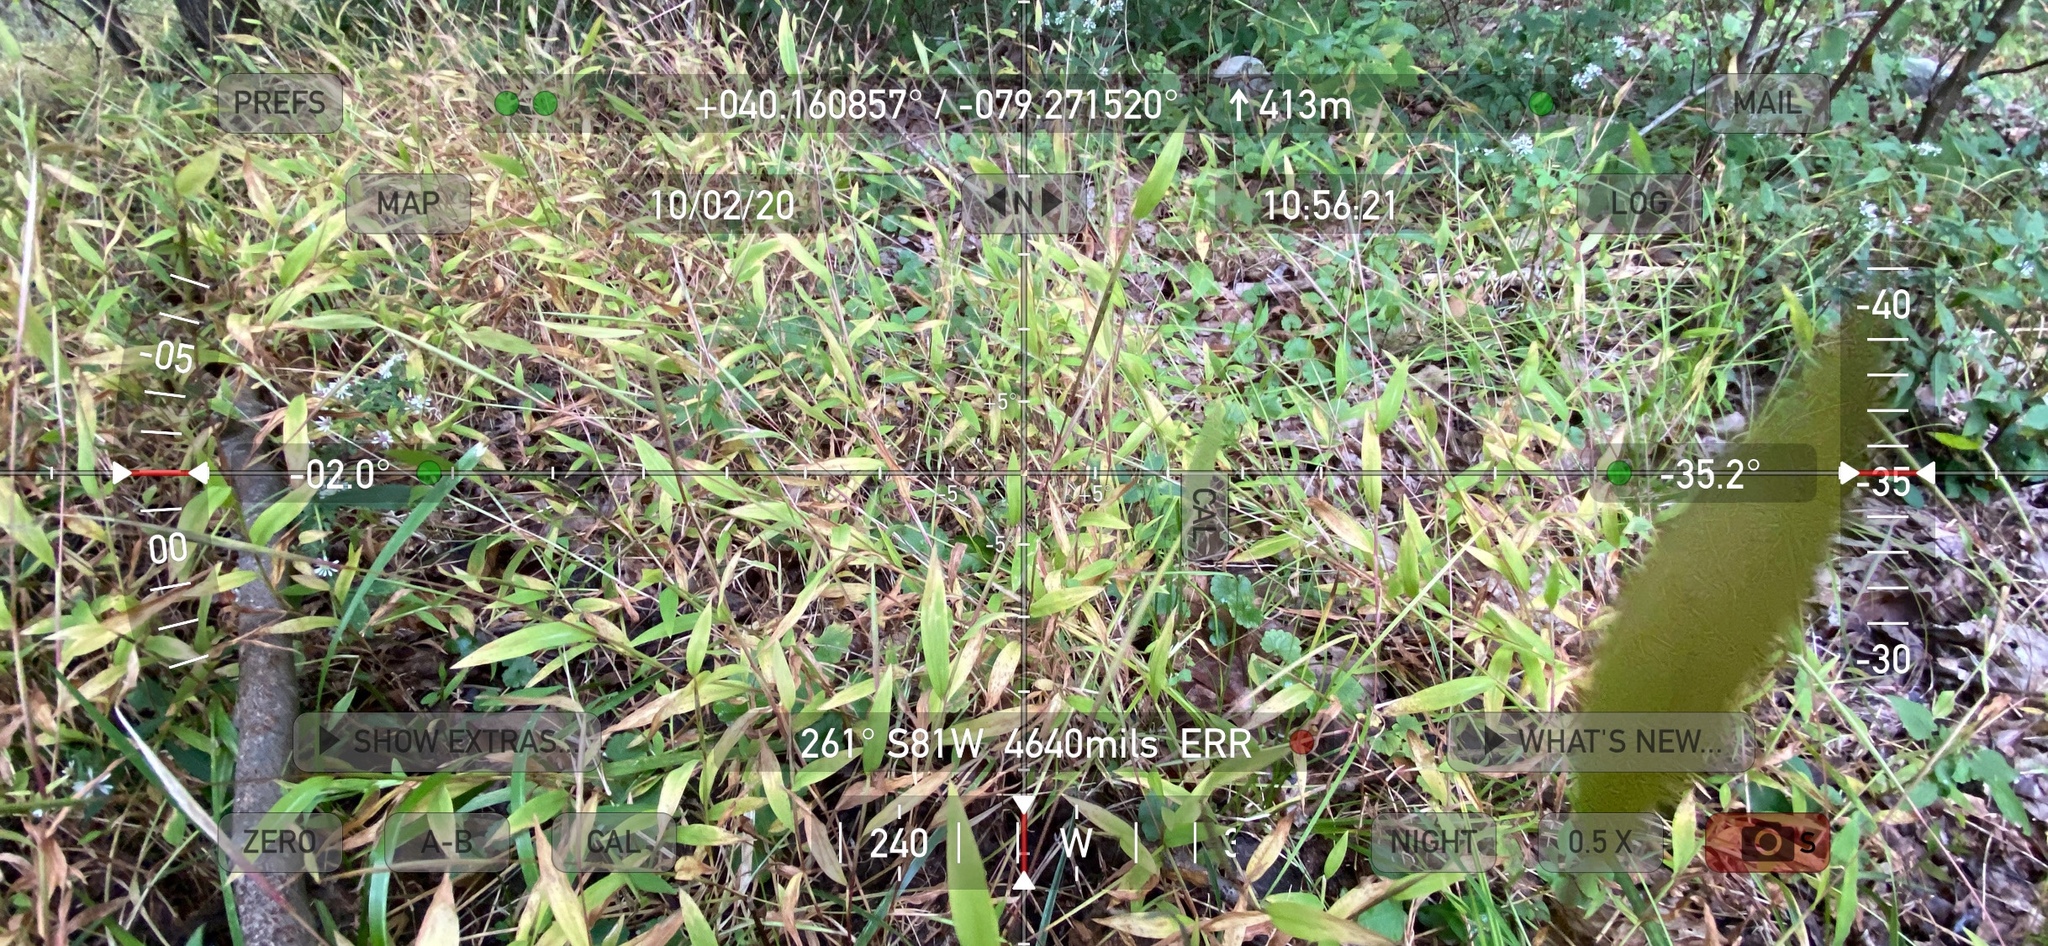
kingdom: Plantae
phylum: Tracheophyta
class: Liliopsida
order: Poales
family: Poaceae
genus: Microstegium
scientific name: Microstegium vimineum
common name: Japanese stiltgrass
